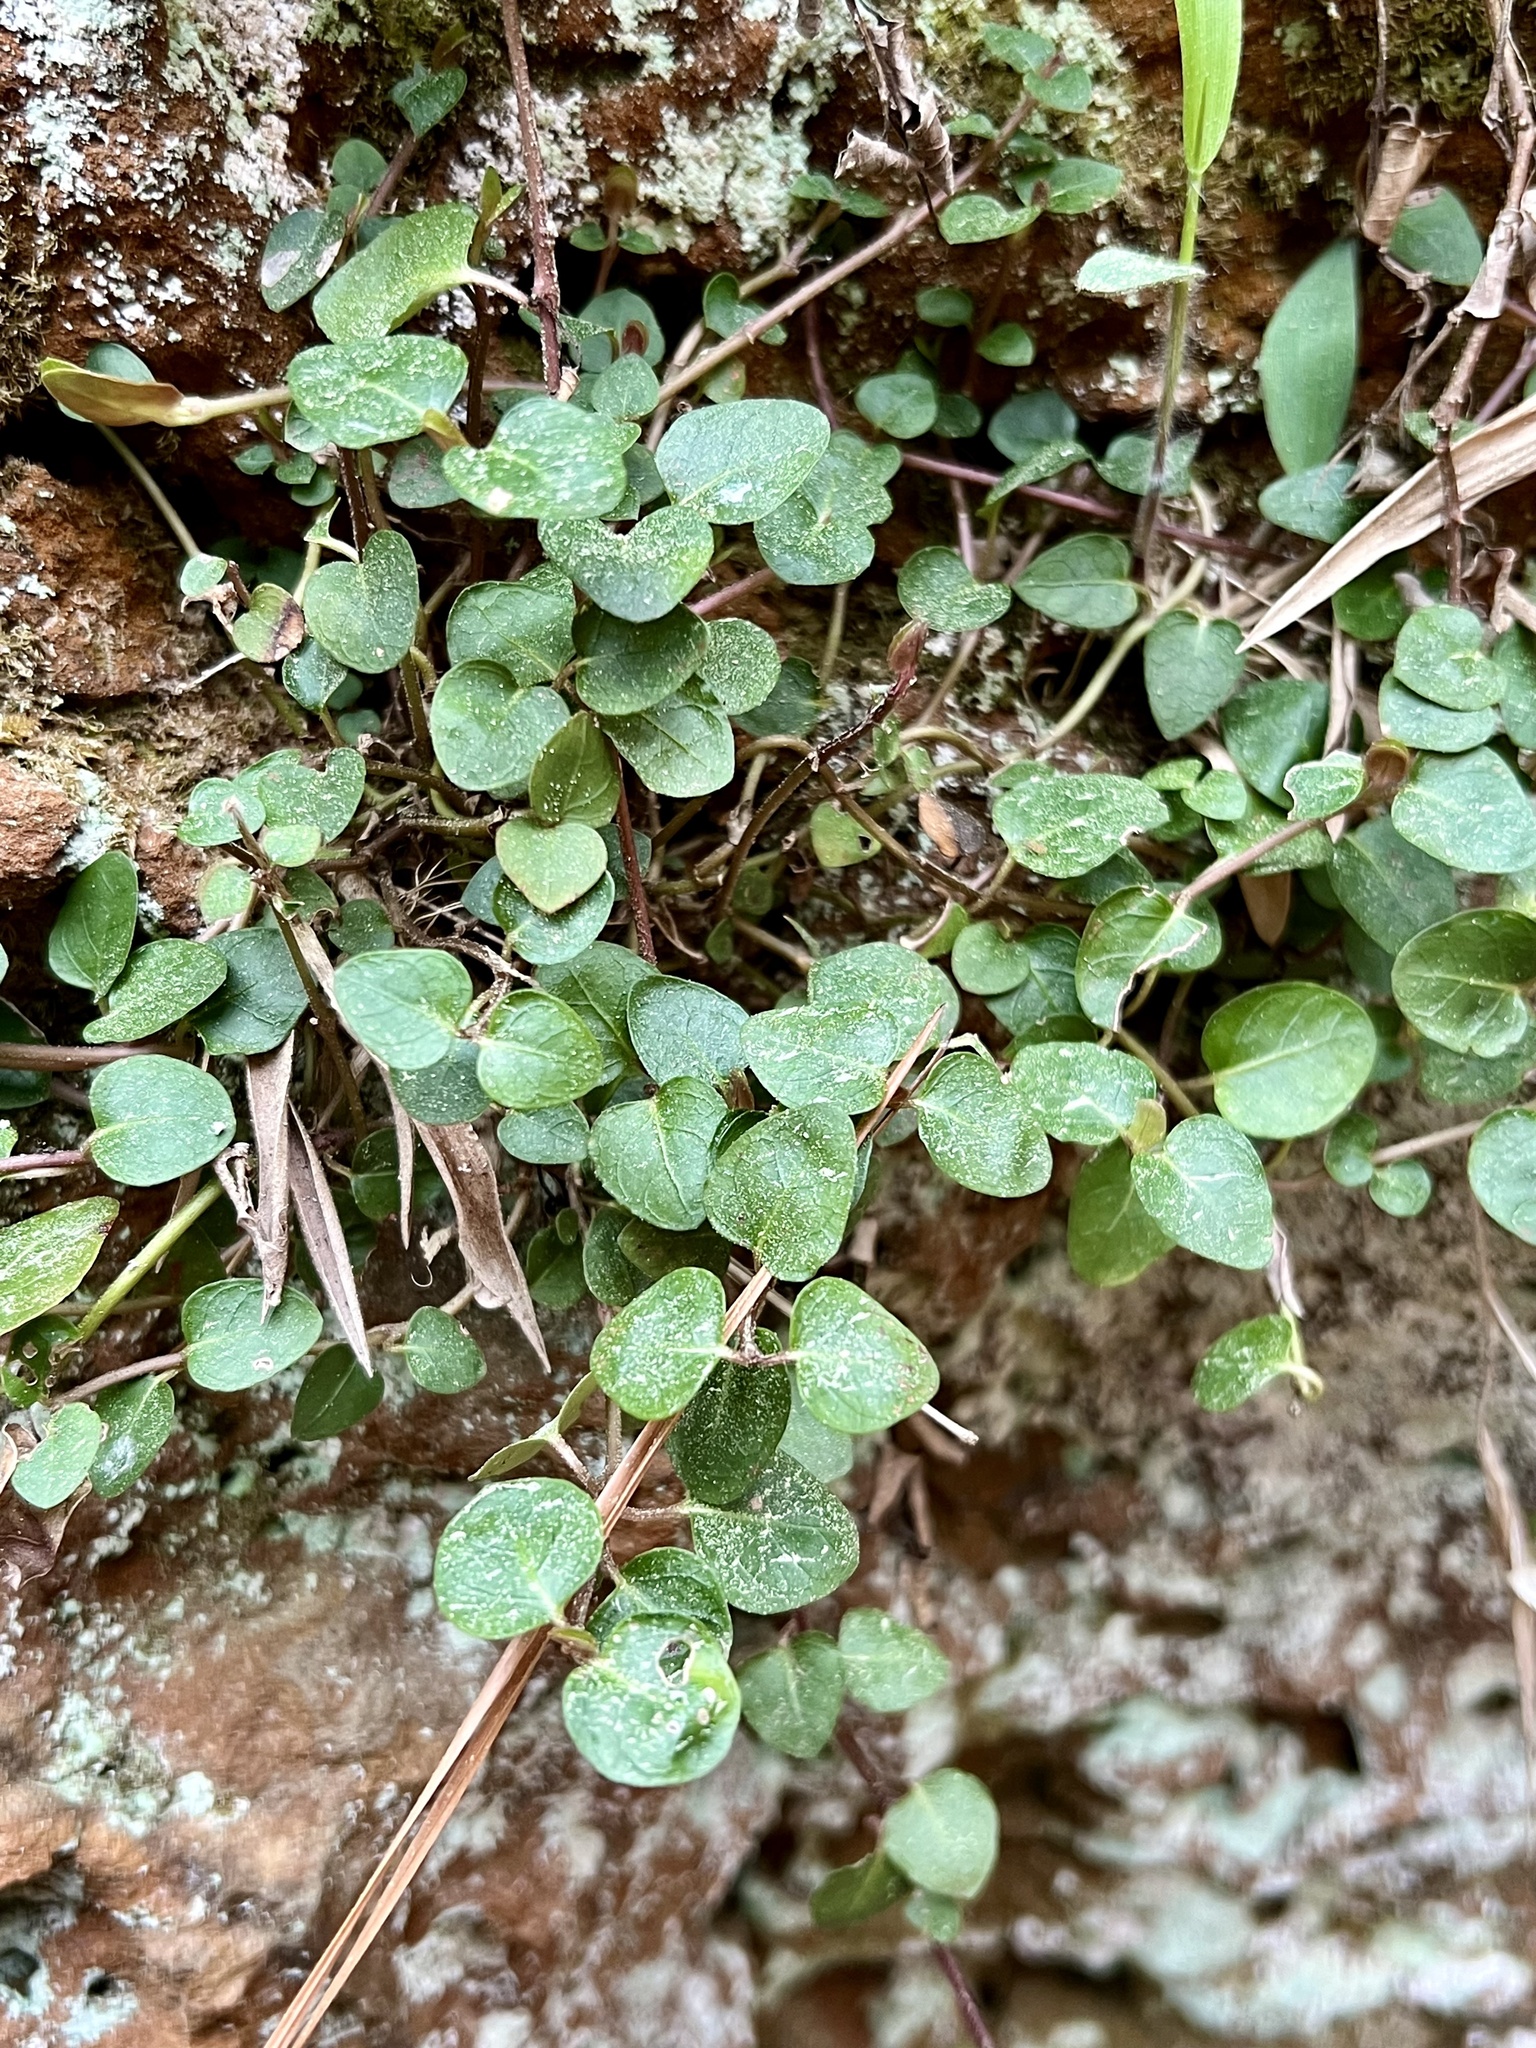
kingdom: Plantae
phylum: Tracheophyta
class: Magnoliopsida
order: Gentianales
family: Rubiaceae
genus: Mitchella
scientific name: Mitchella repens
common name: Partridge-berry
